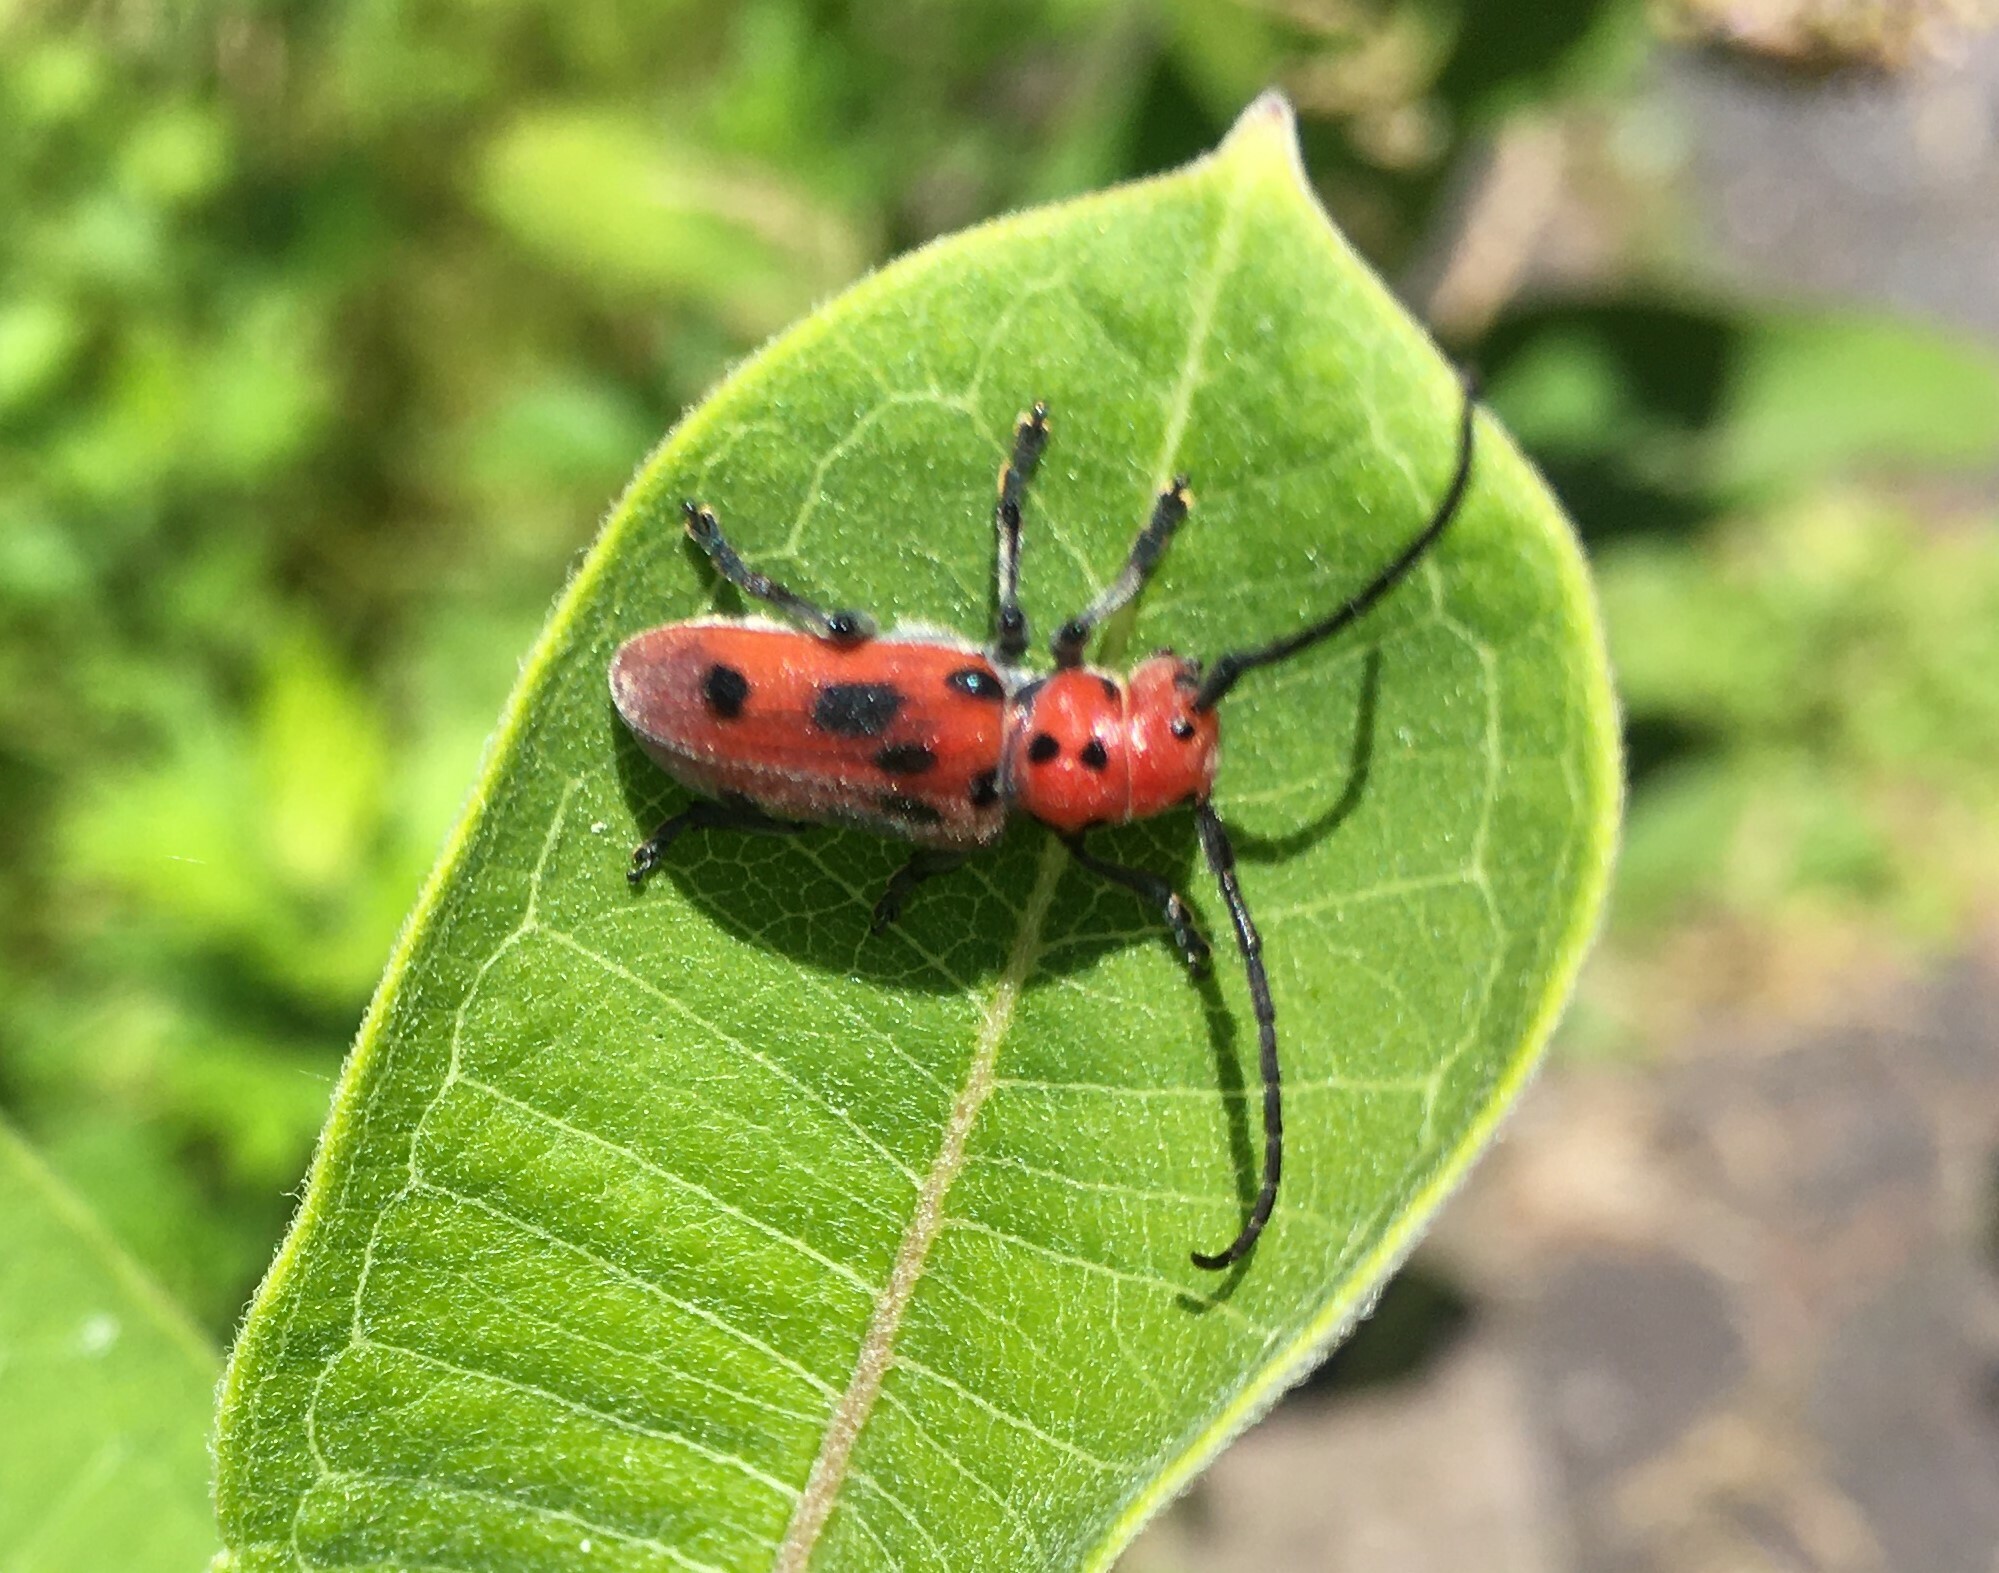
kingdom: Animalia
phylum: Arthropoda
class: Insecta
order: Coleoptera
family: Cerambycidae
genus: Tetraopes
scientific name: Tetraopes tetrophthalmus
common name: Red milkweed beetle
